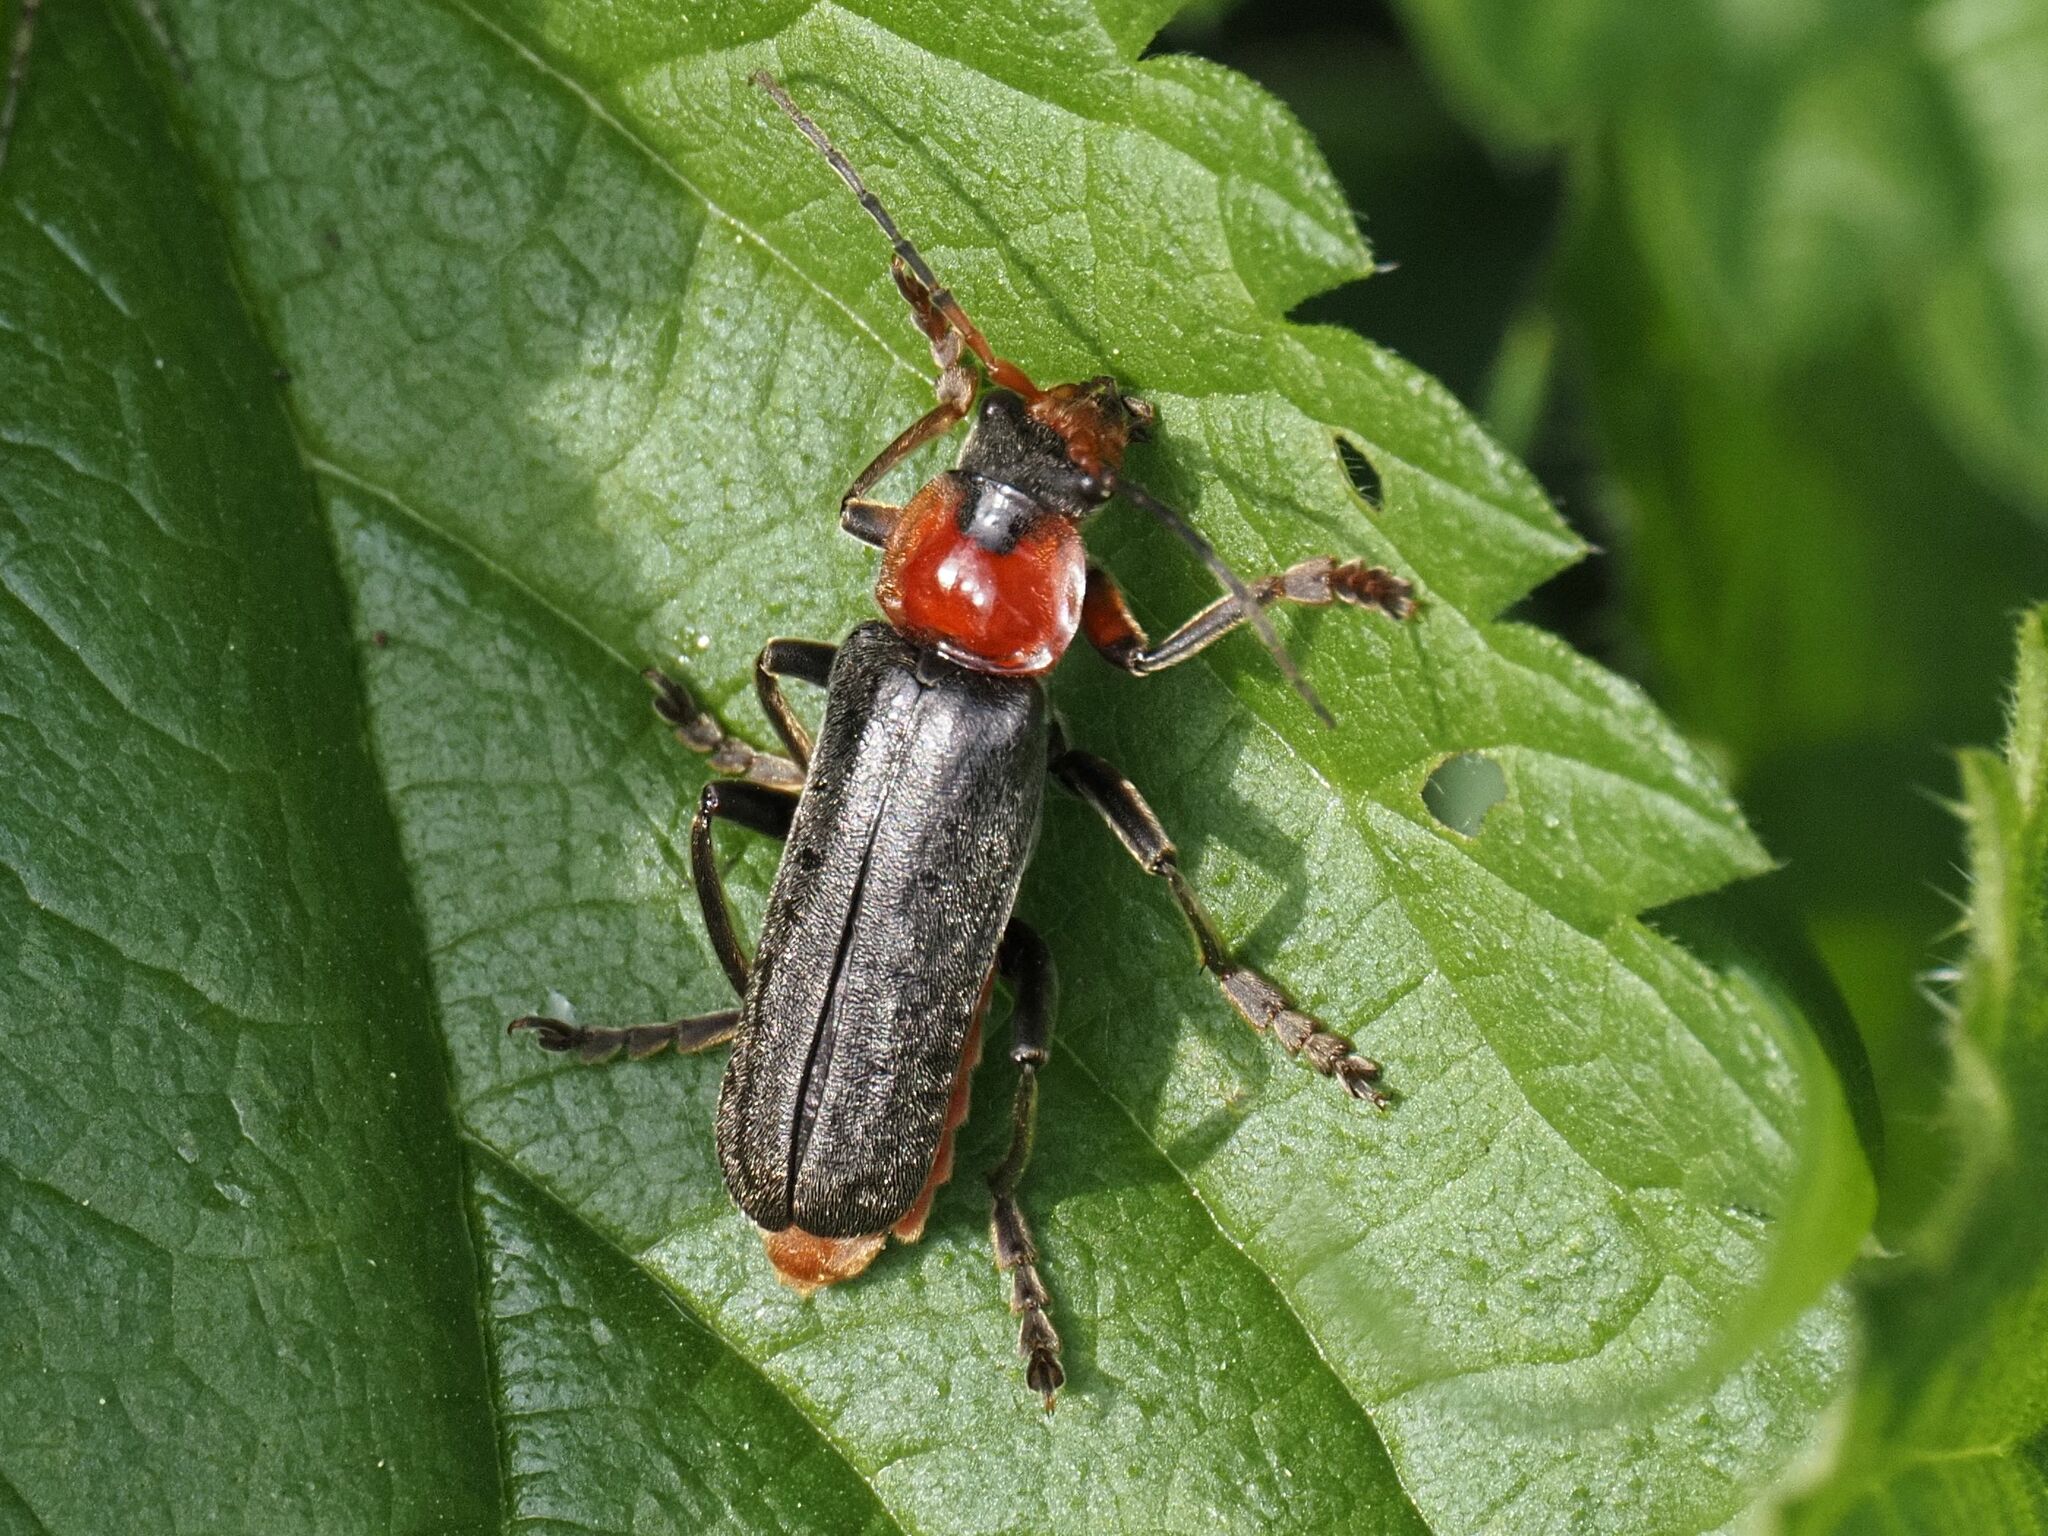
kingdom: Animalia
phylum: Arthropoda
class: Insecta
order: Coleoptera
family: Cantharidae
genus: Cantharis
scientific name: Cantharis fusca
